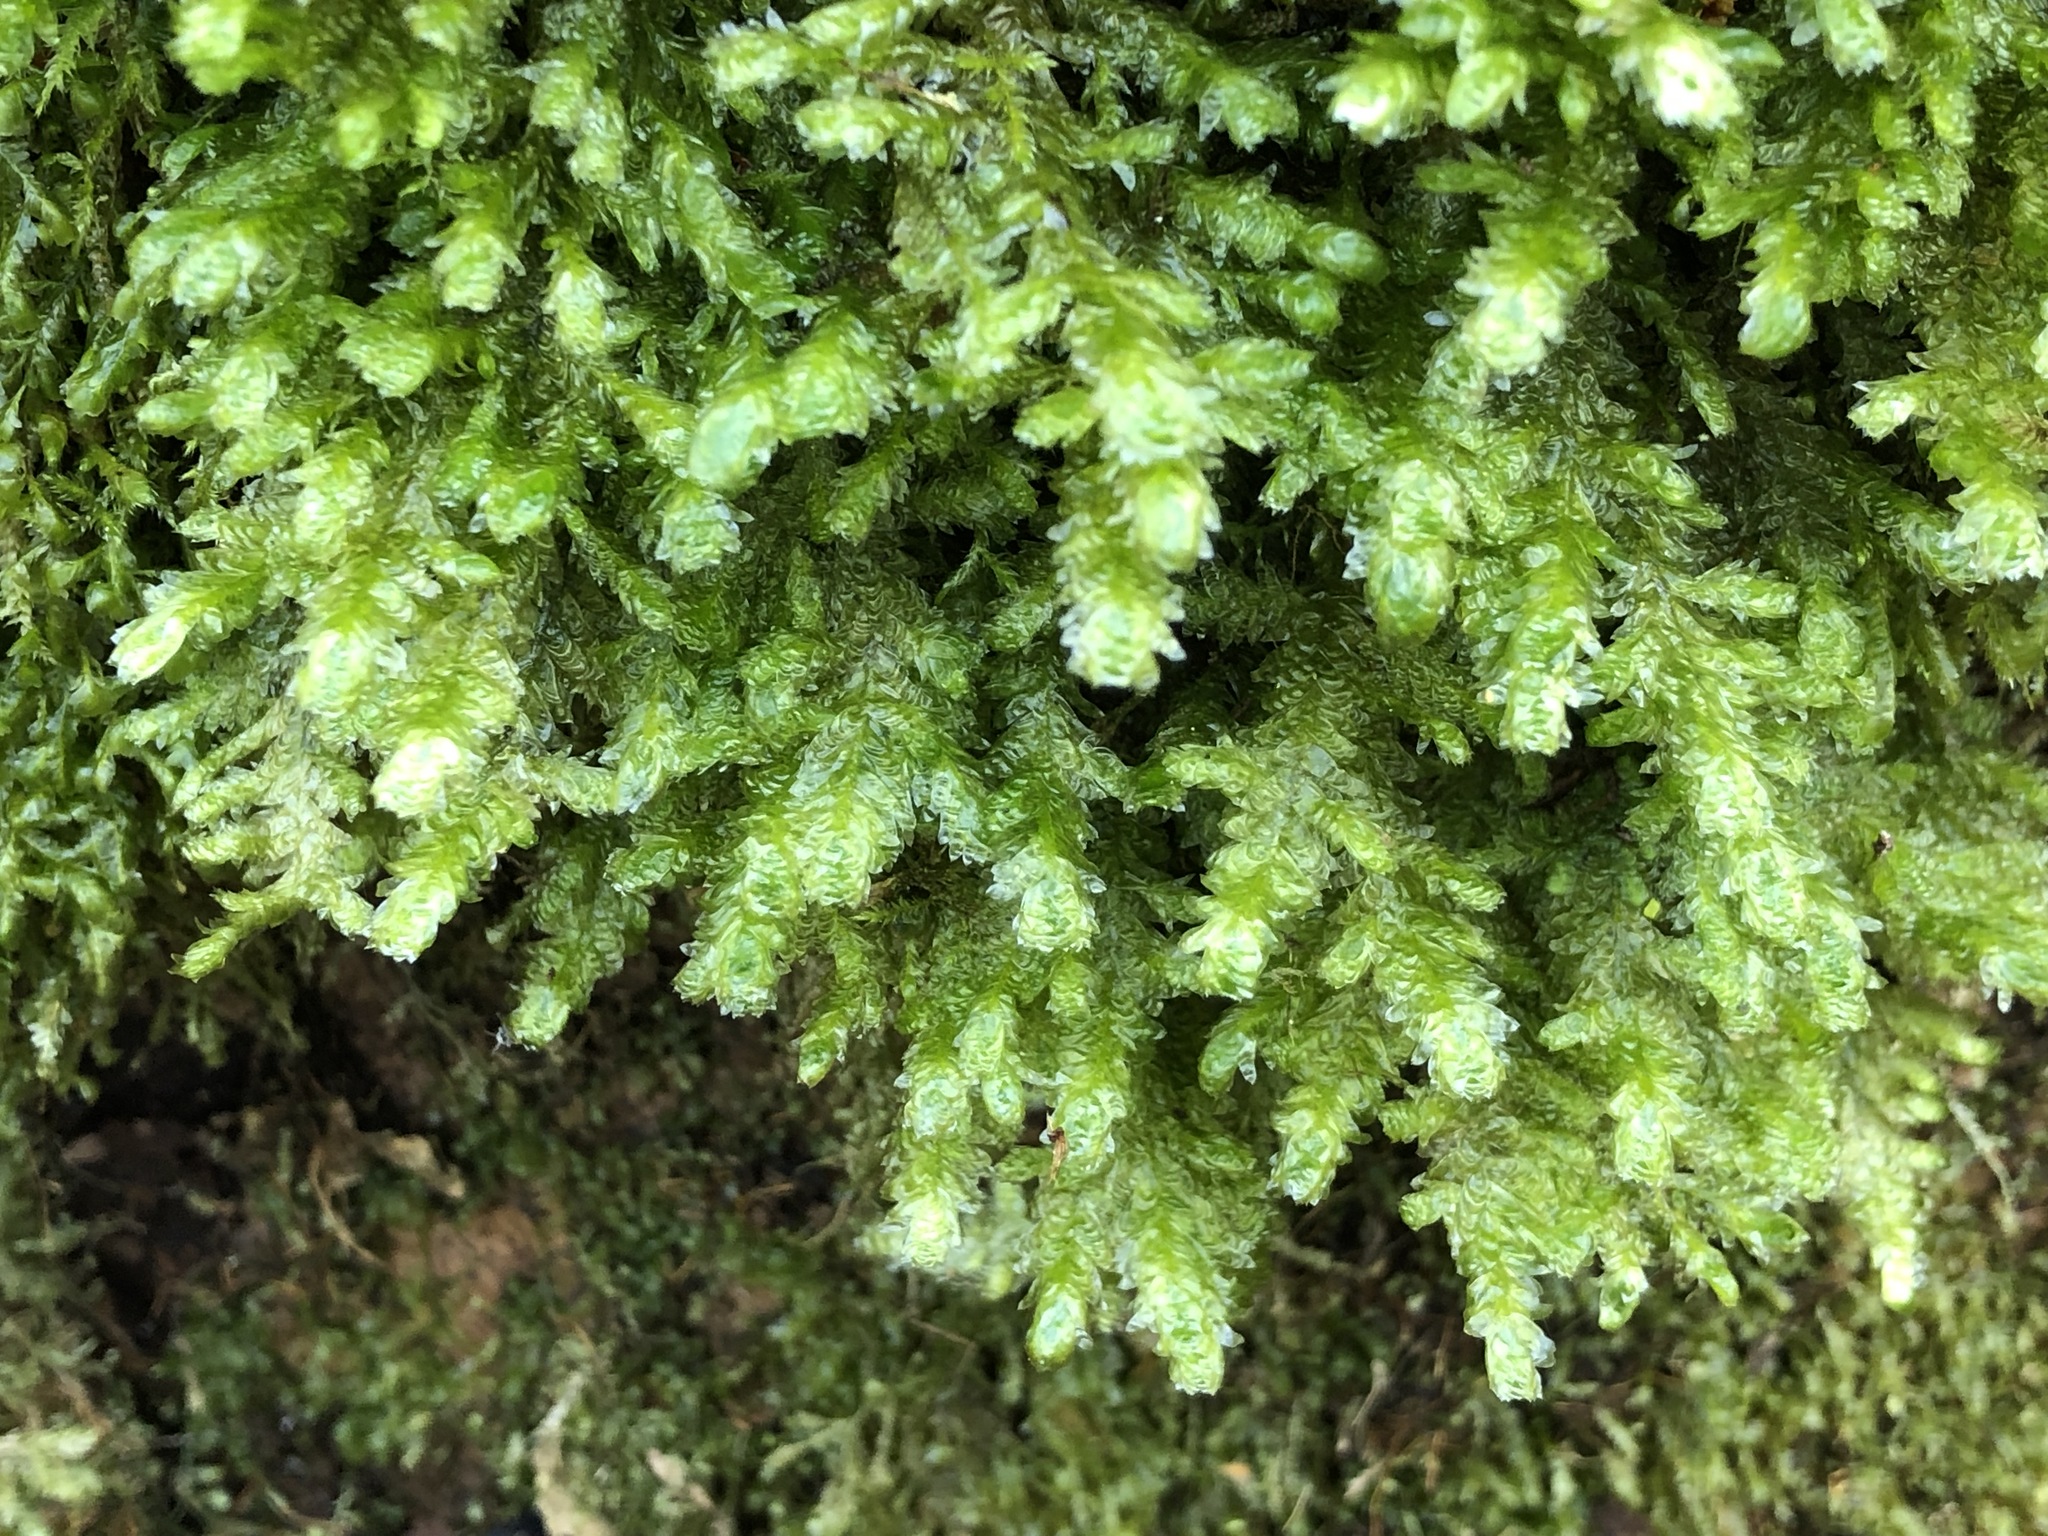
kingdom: Plantae
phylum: Bryophyta
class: Bryopsida
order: Hypnales
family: Neckeraceae
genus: Exsertotheca
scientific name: Exsertotheca crispa
